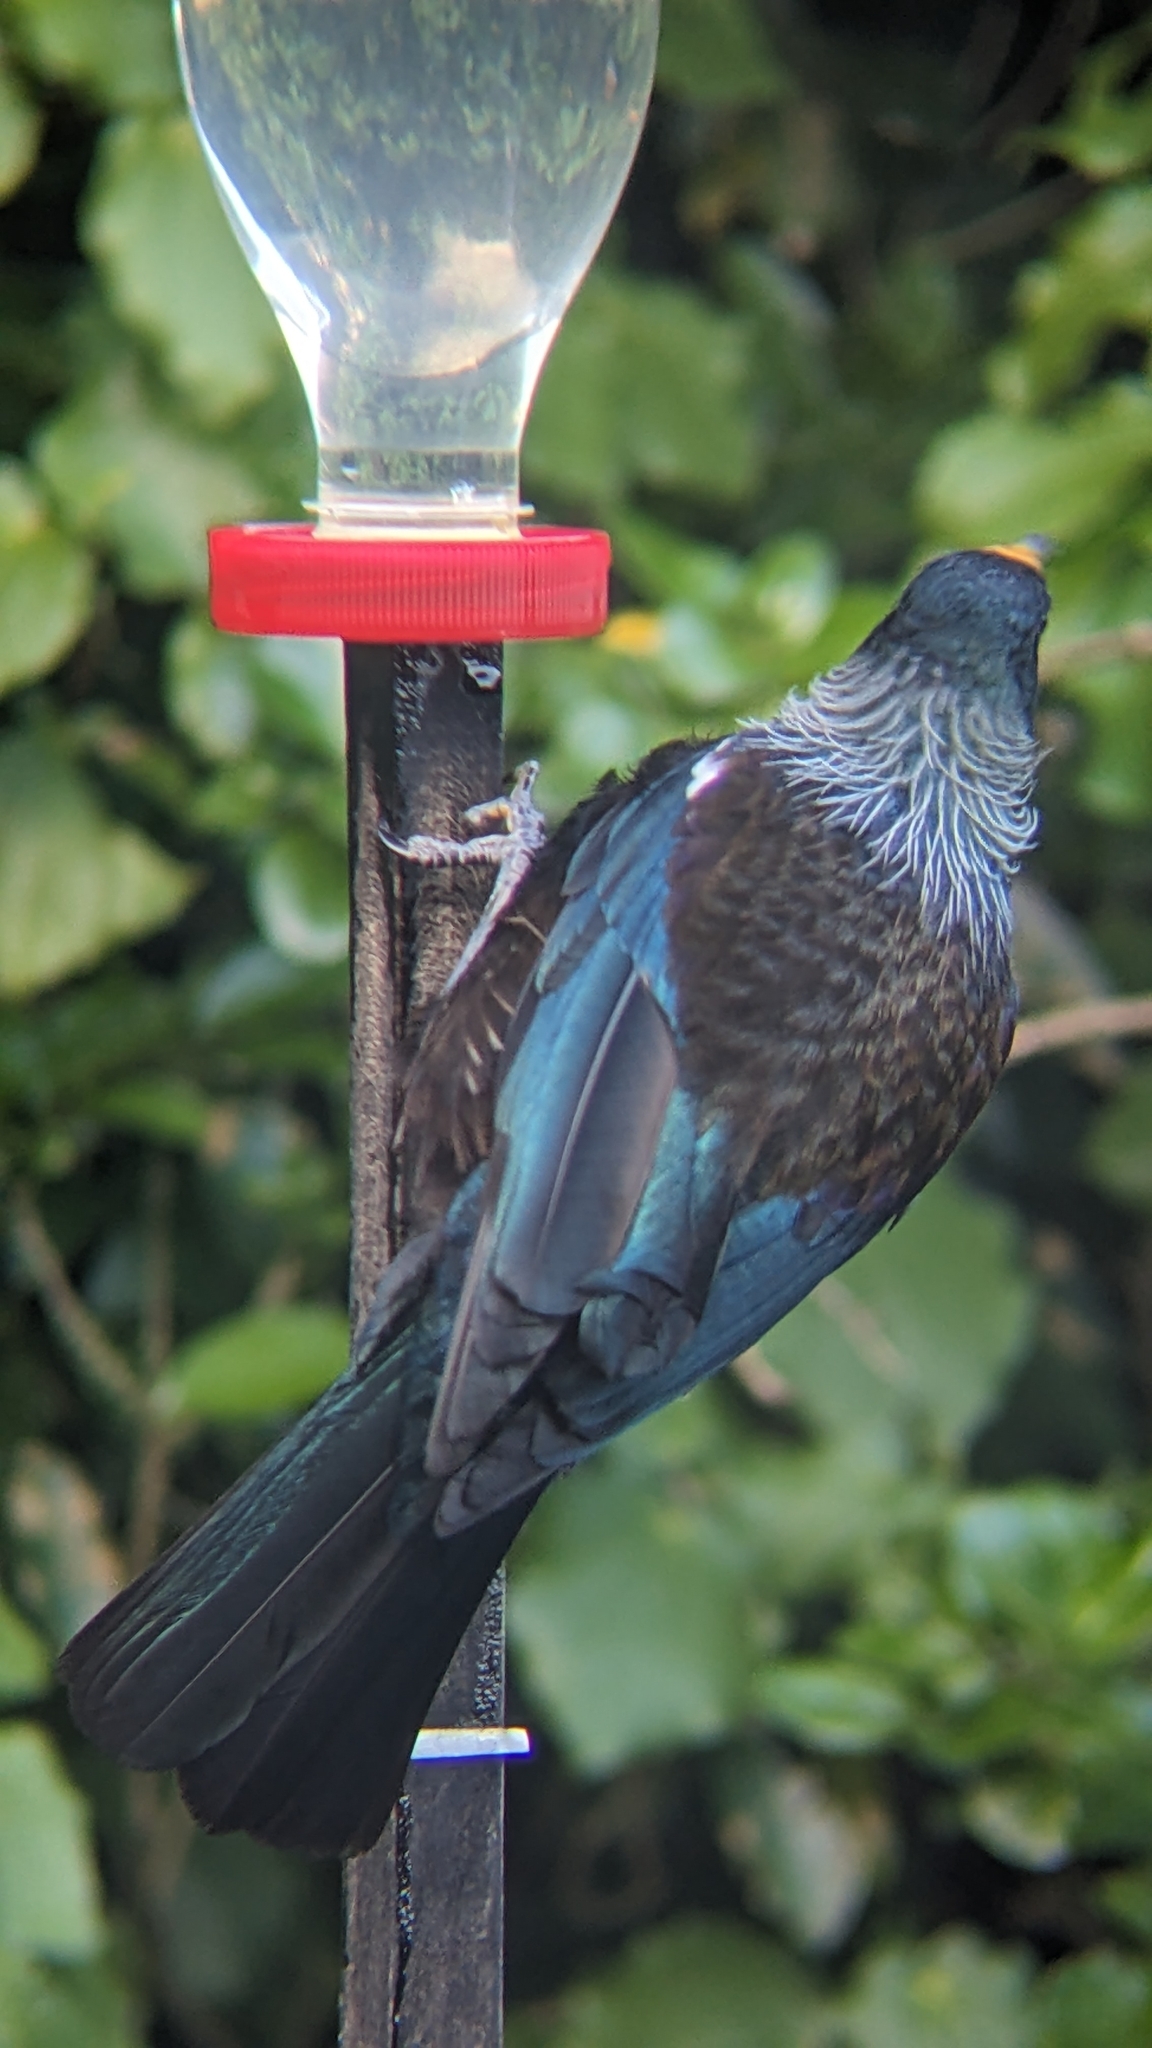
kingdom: Animalia
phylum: Chordata
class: Aves
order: Passeriformes
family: Meliphagidae
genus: Prosthemadera
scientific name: Prosthemadera novaeseelandiae
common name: Tui
